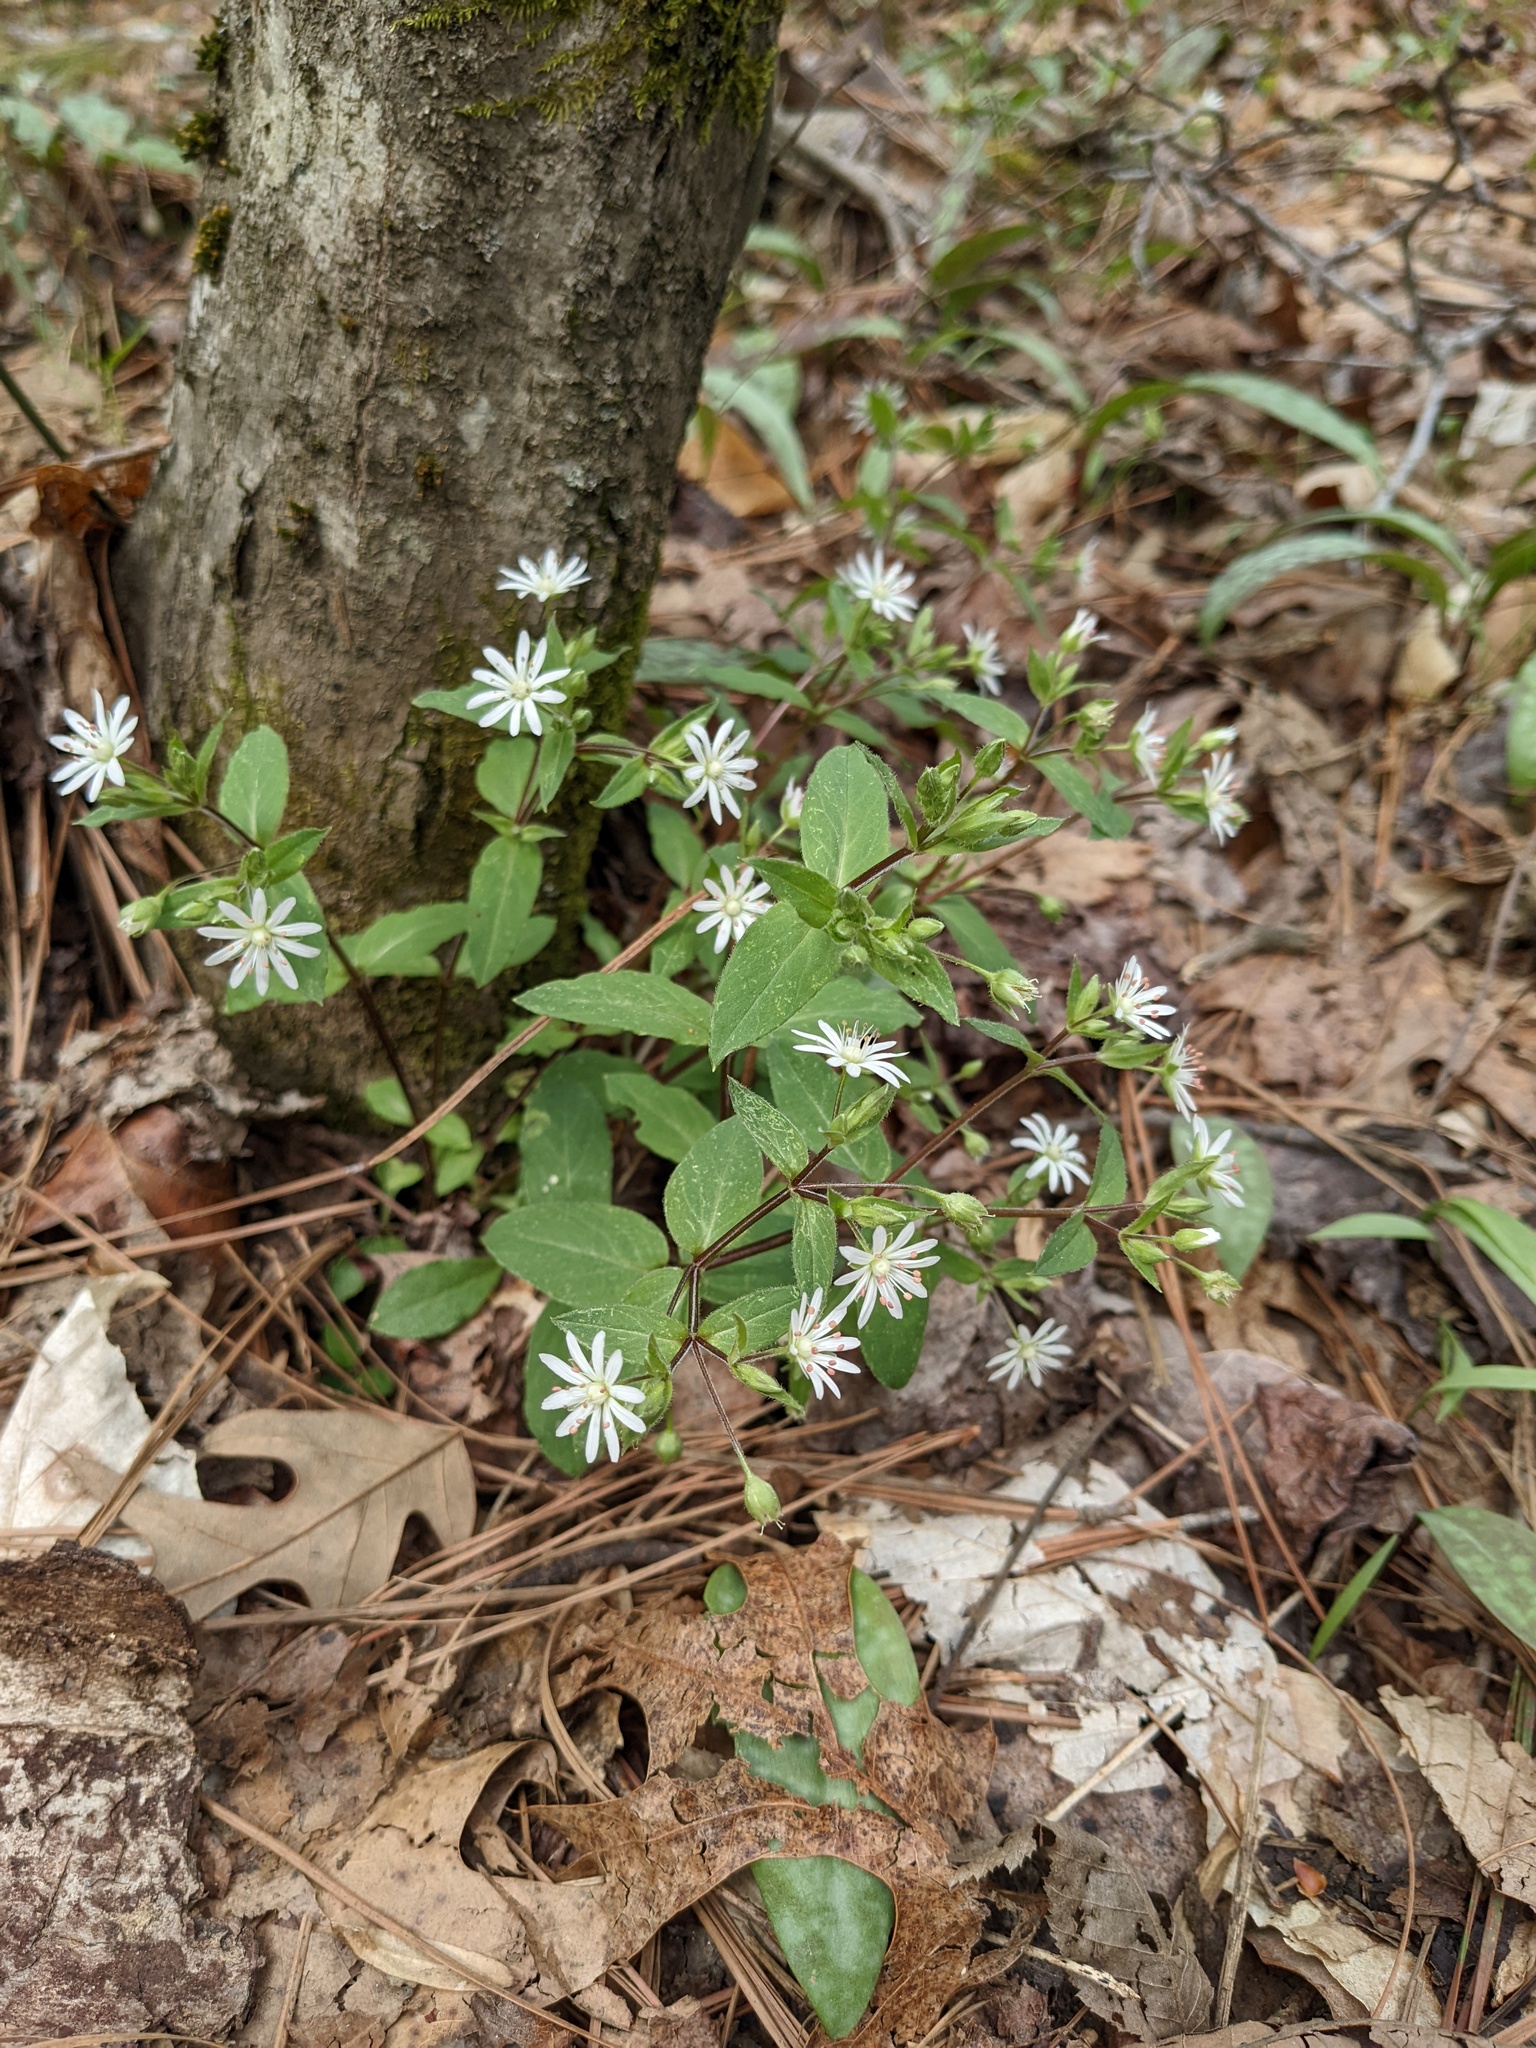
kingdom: Plantae
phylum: Tracheophyta
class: Magnoliopsida
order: Caryophyllales
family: Caryophyllaceae
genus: Stellaria
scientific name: Stellaria pubera
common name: Star chickweed
